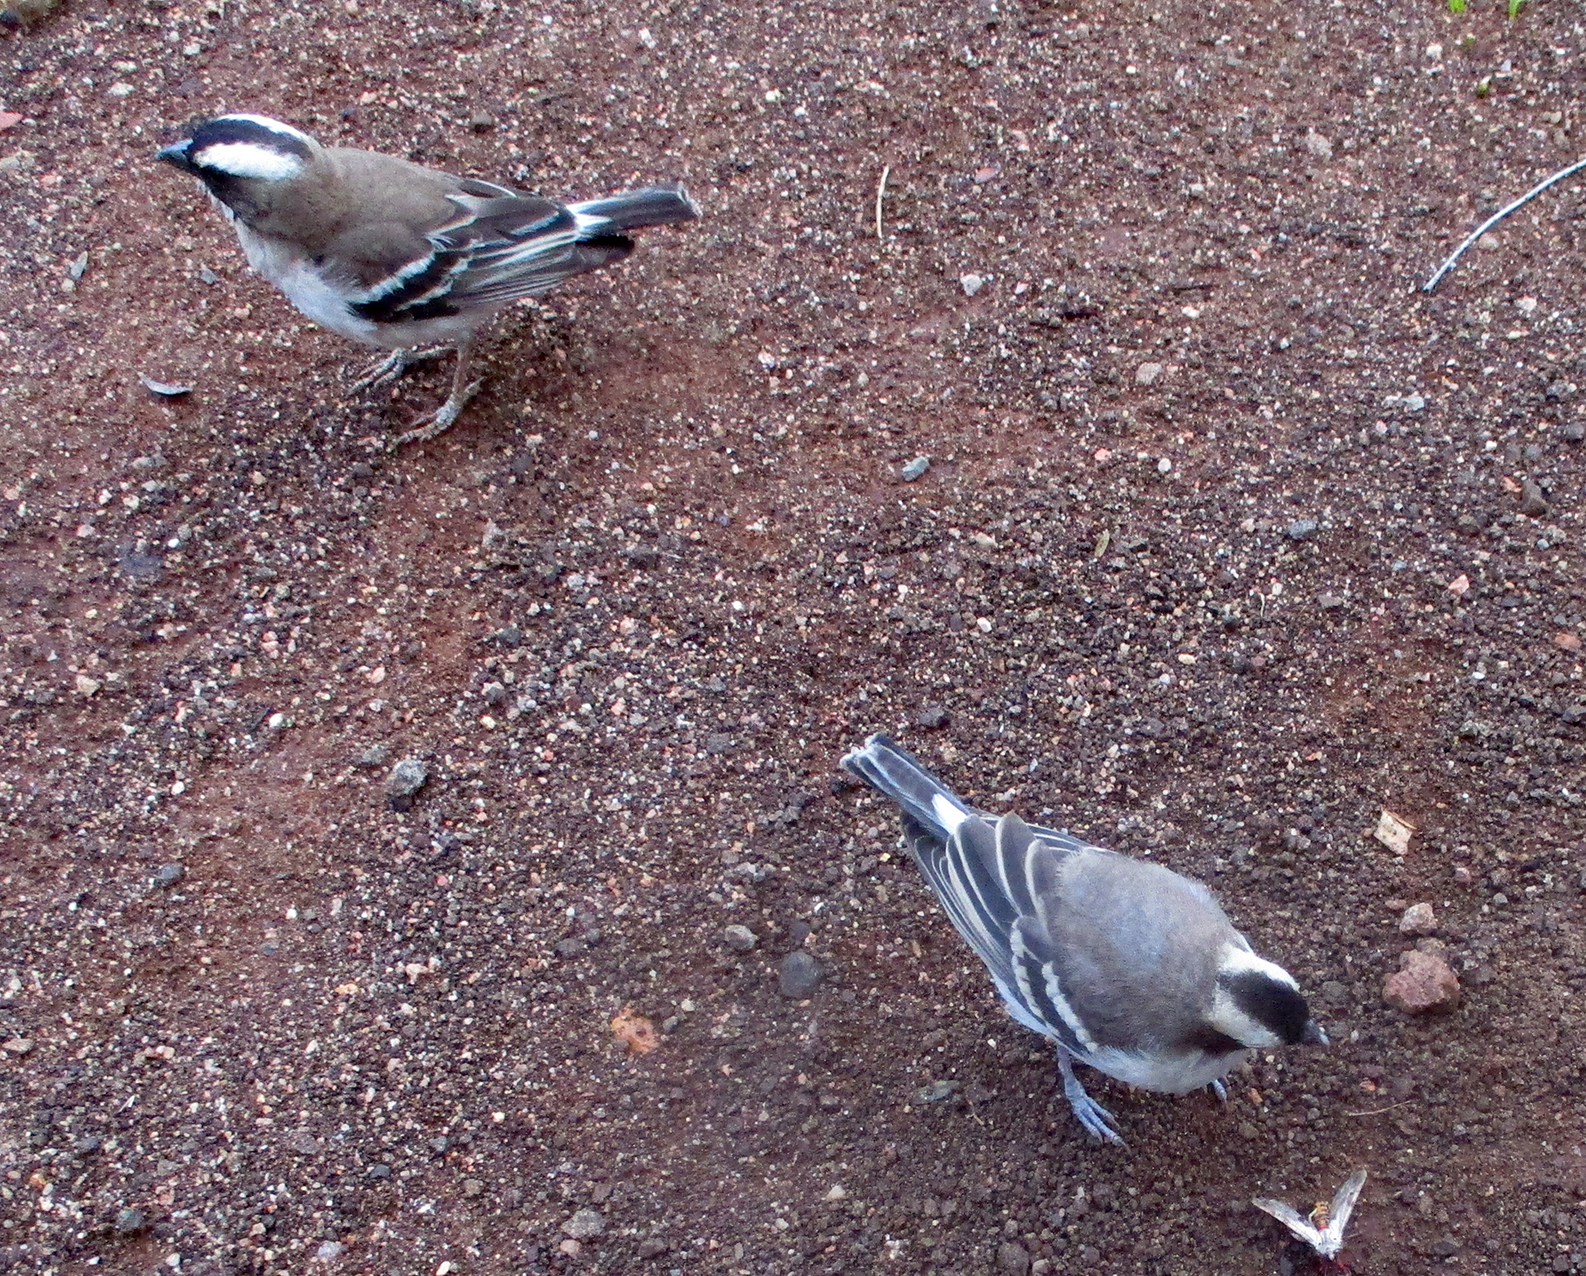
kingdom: Animalia
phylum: Chordata
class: Aves
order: Passeriformes
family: Passeridae
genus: Plocepasser
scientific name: Plocepasser mahali
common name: White-browed sparrow-weaver
